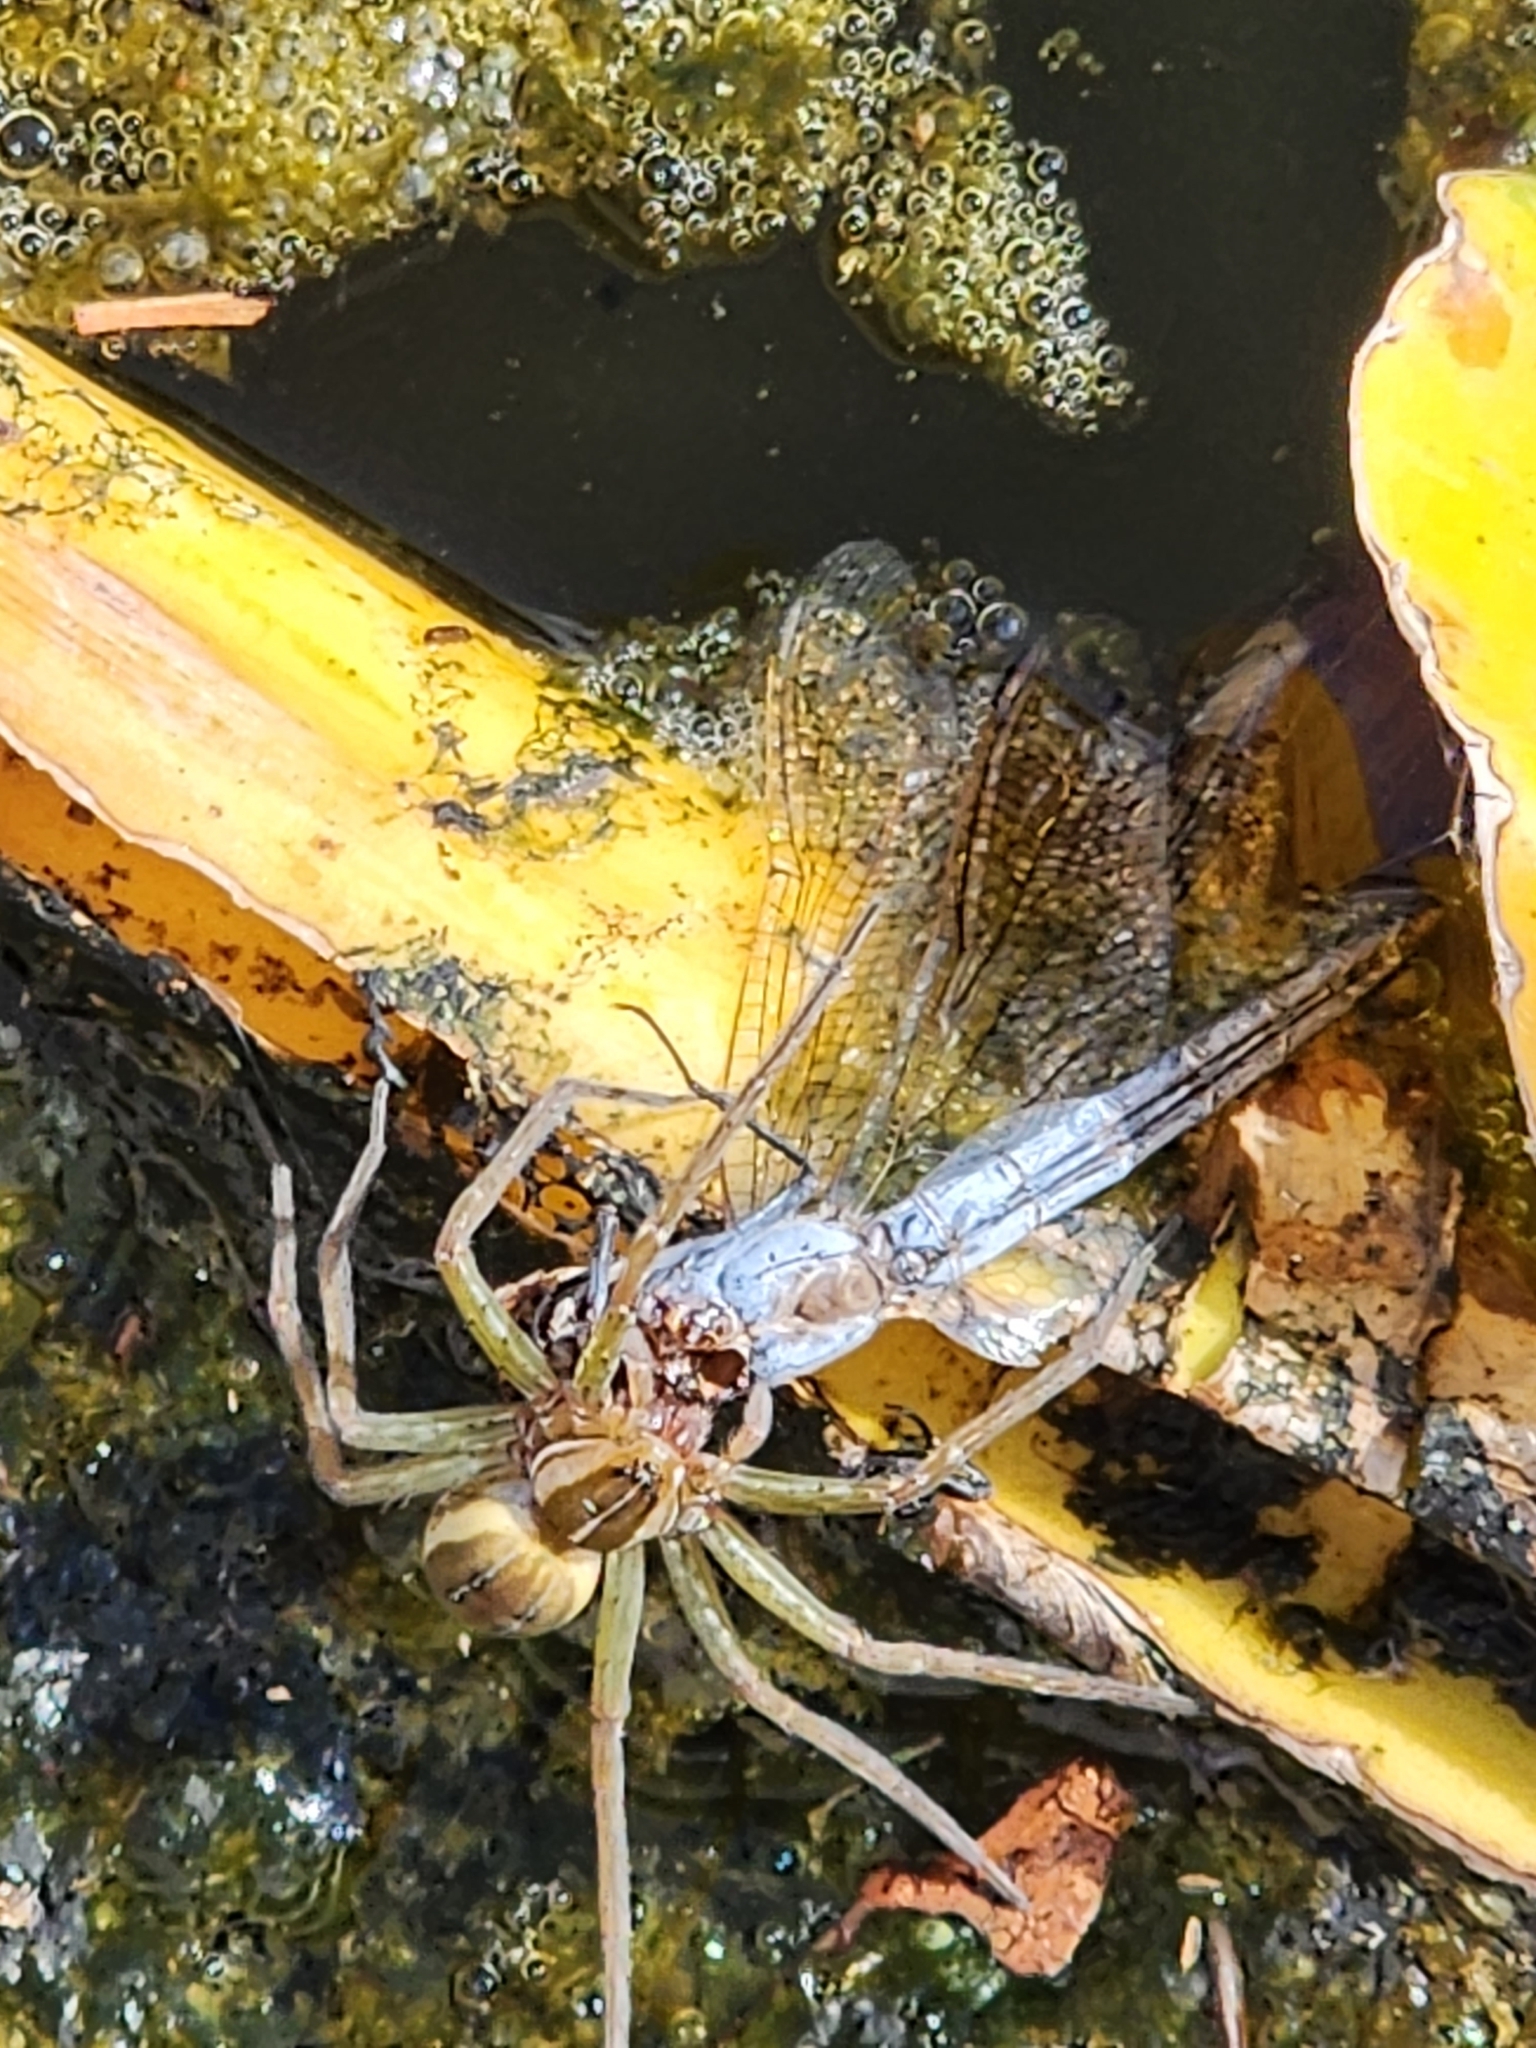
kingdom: Animalia
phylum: Arthropoda
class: Arachnida
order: Araneae
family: Pisauridae
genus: Dolomedes
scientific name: Dolomedes facetus
